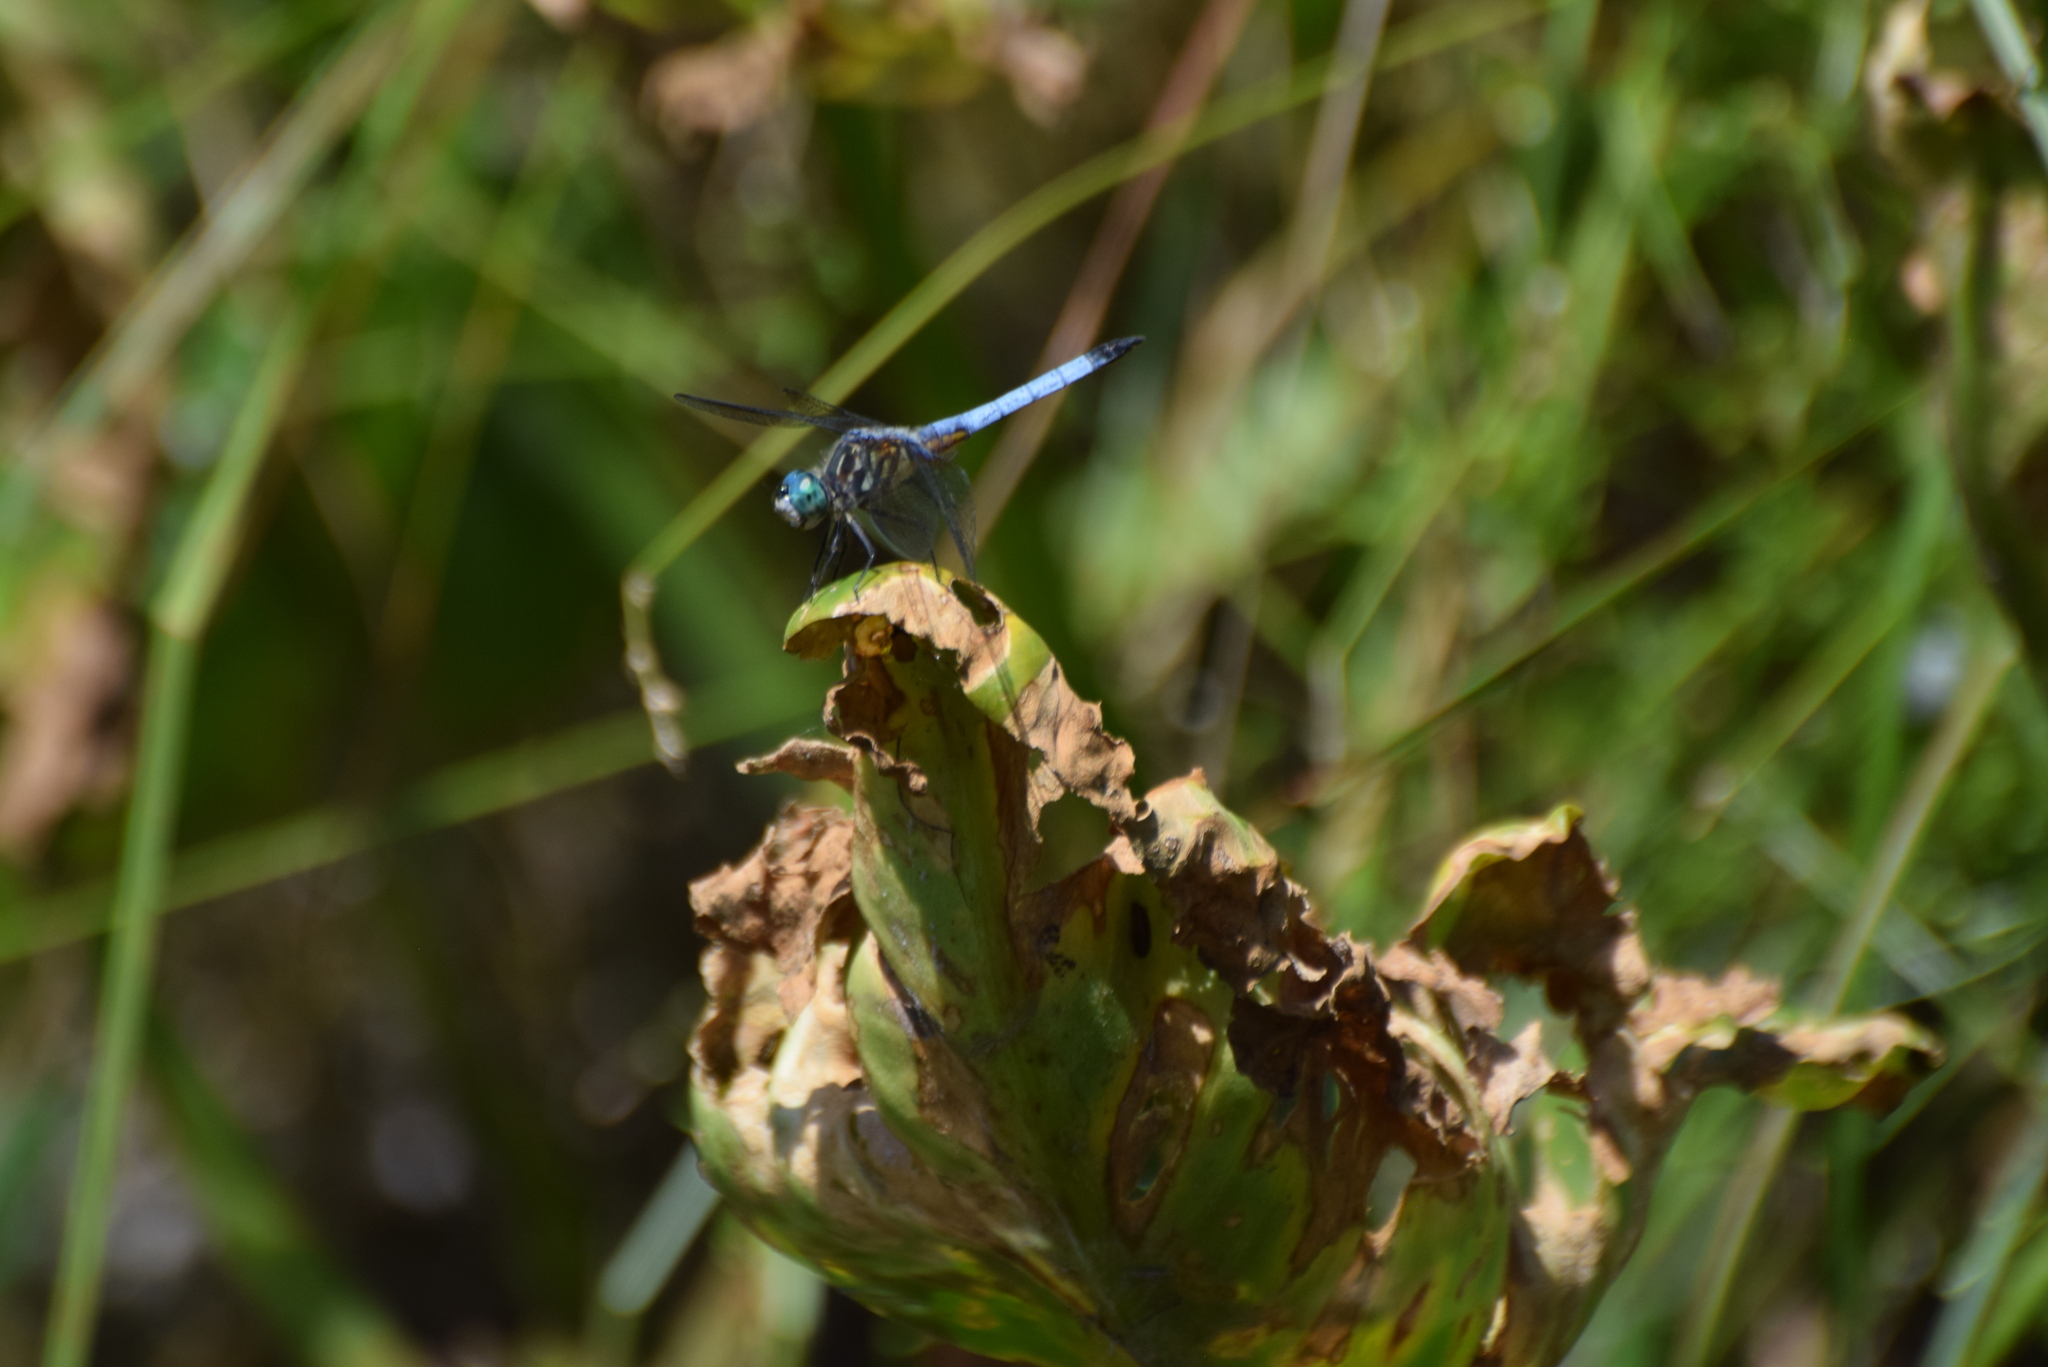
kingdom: Animalia
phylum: Arthropoda
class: Insecta
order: Odonata
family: Libellulidae
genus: Pachydiplax
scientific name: Pachydiplax longipennis
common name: Blue dasher
